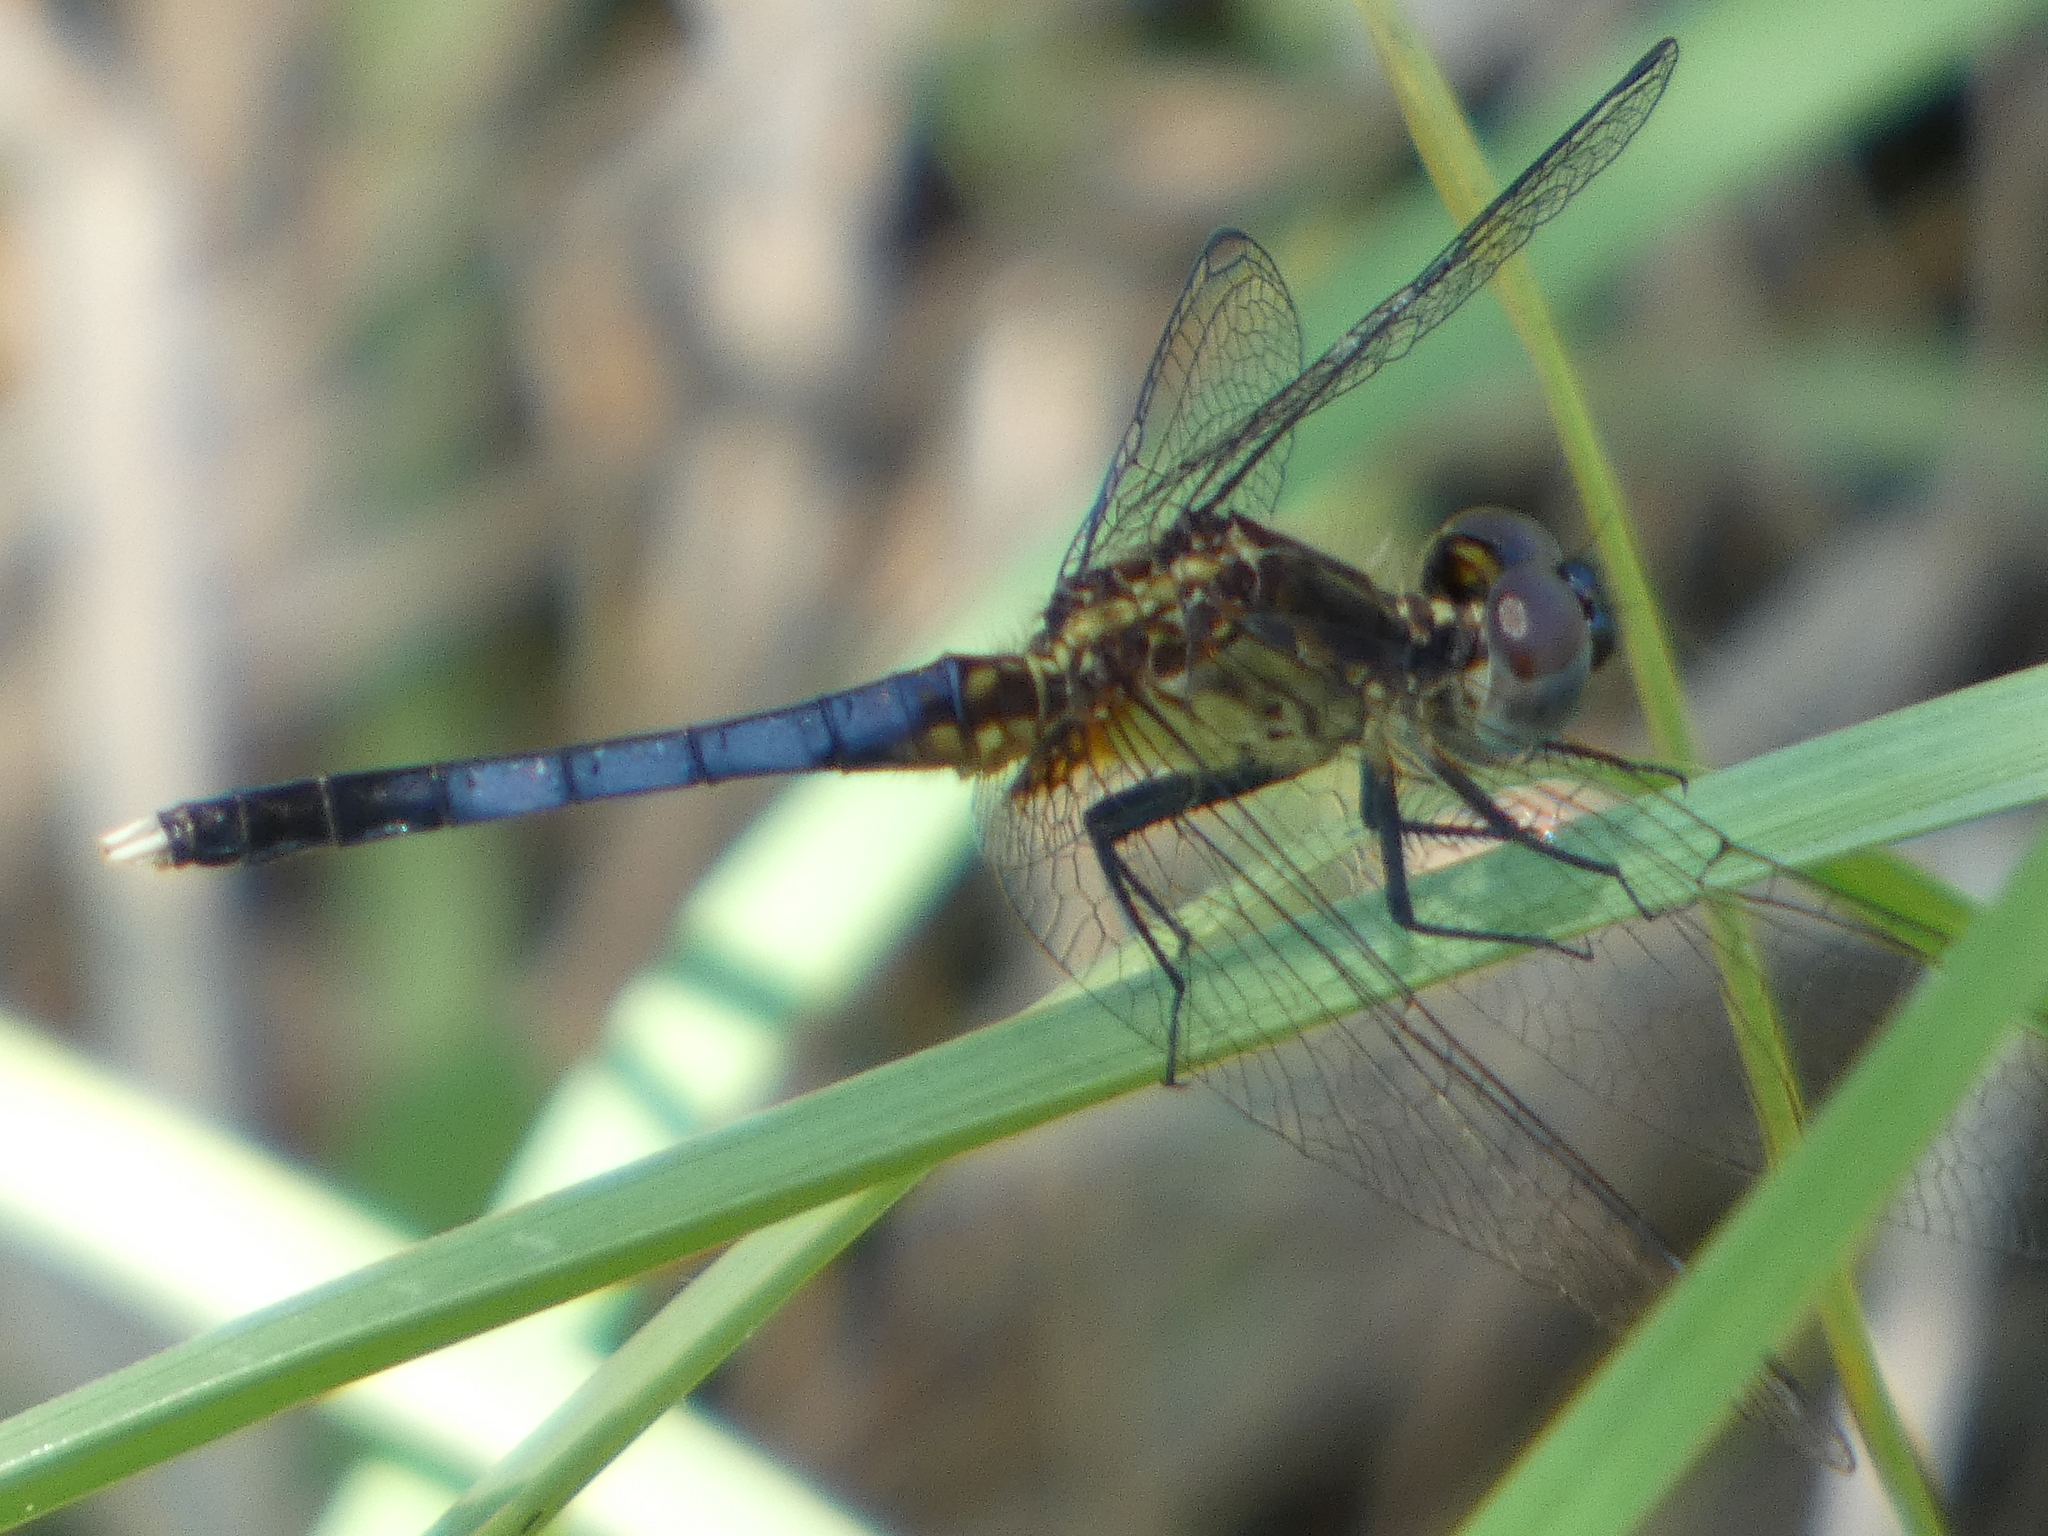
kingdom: Animalia
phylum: Arthropoda
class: Insecta
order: Odonata
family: Libellulidae
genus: Erythrodiplax
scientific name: Erythrodiplax minuscula
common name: Little blue dragonlet
